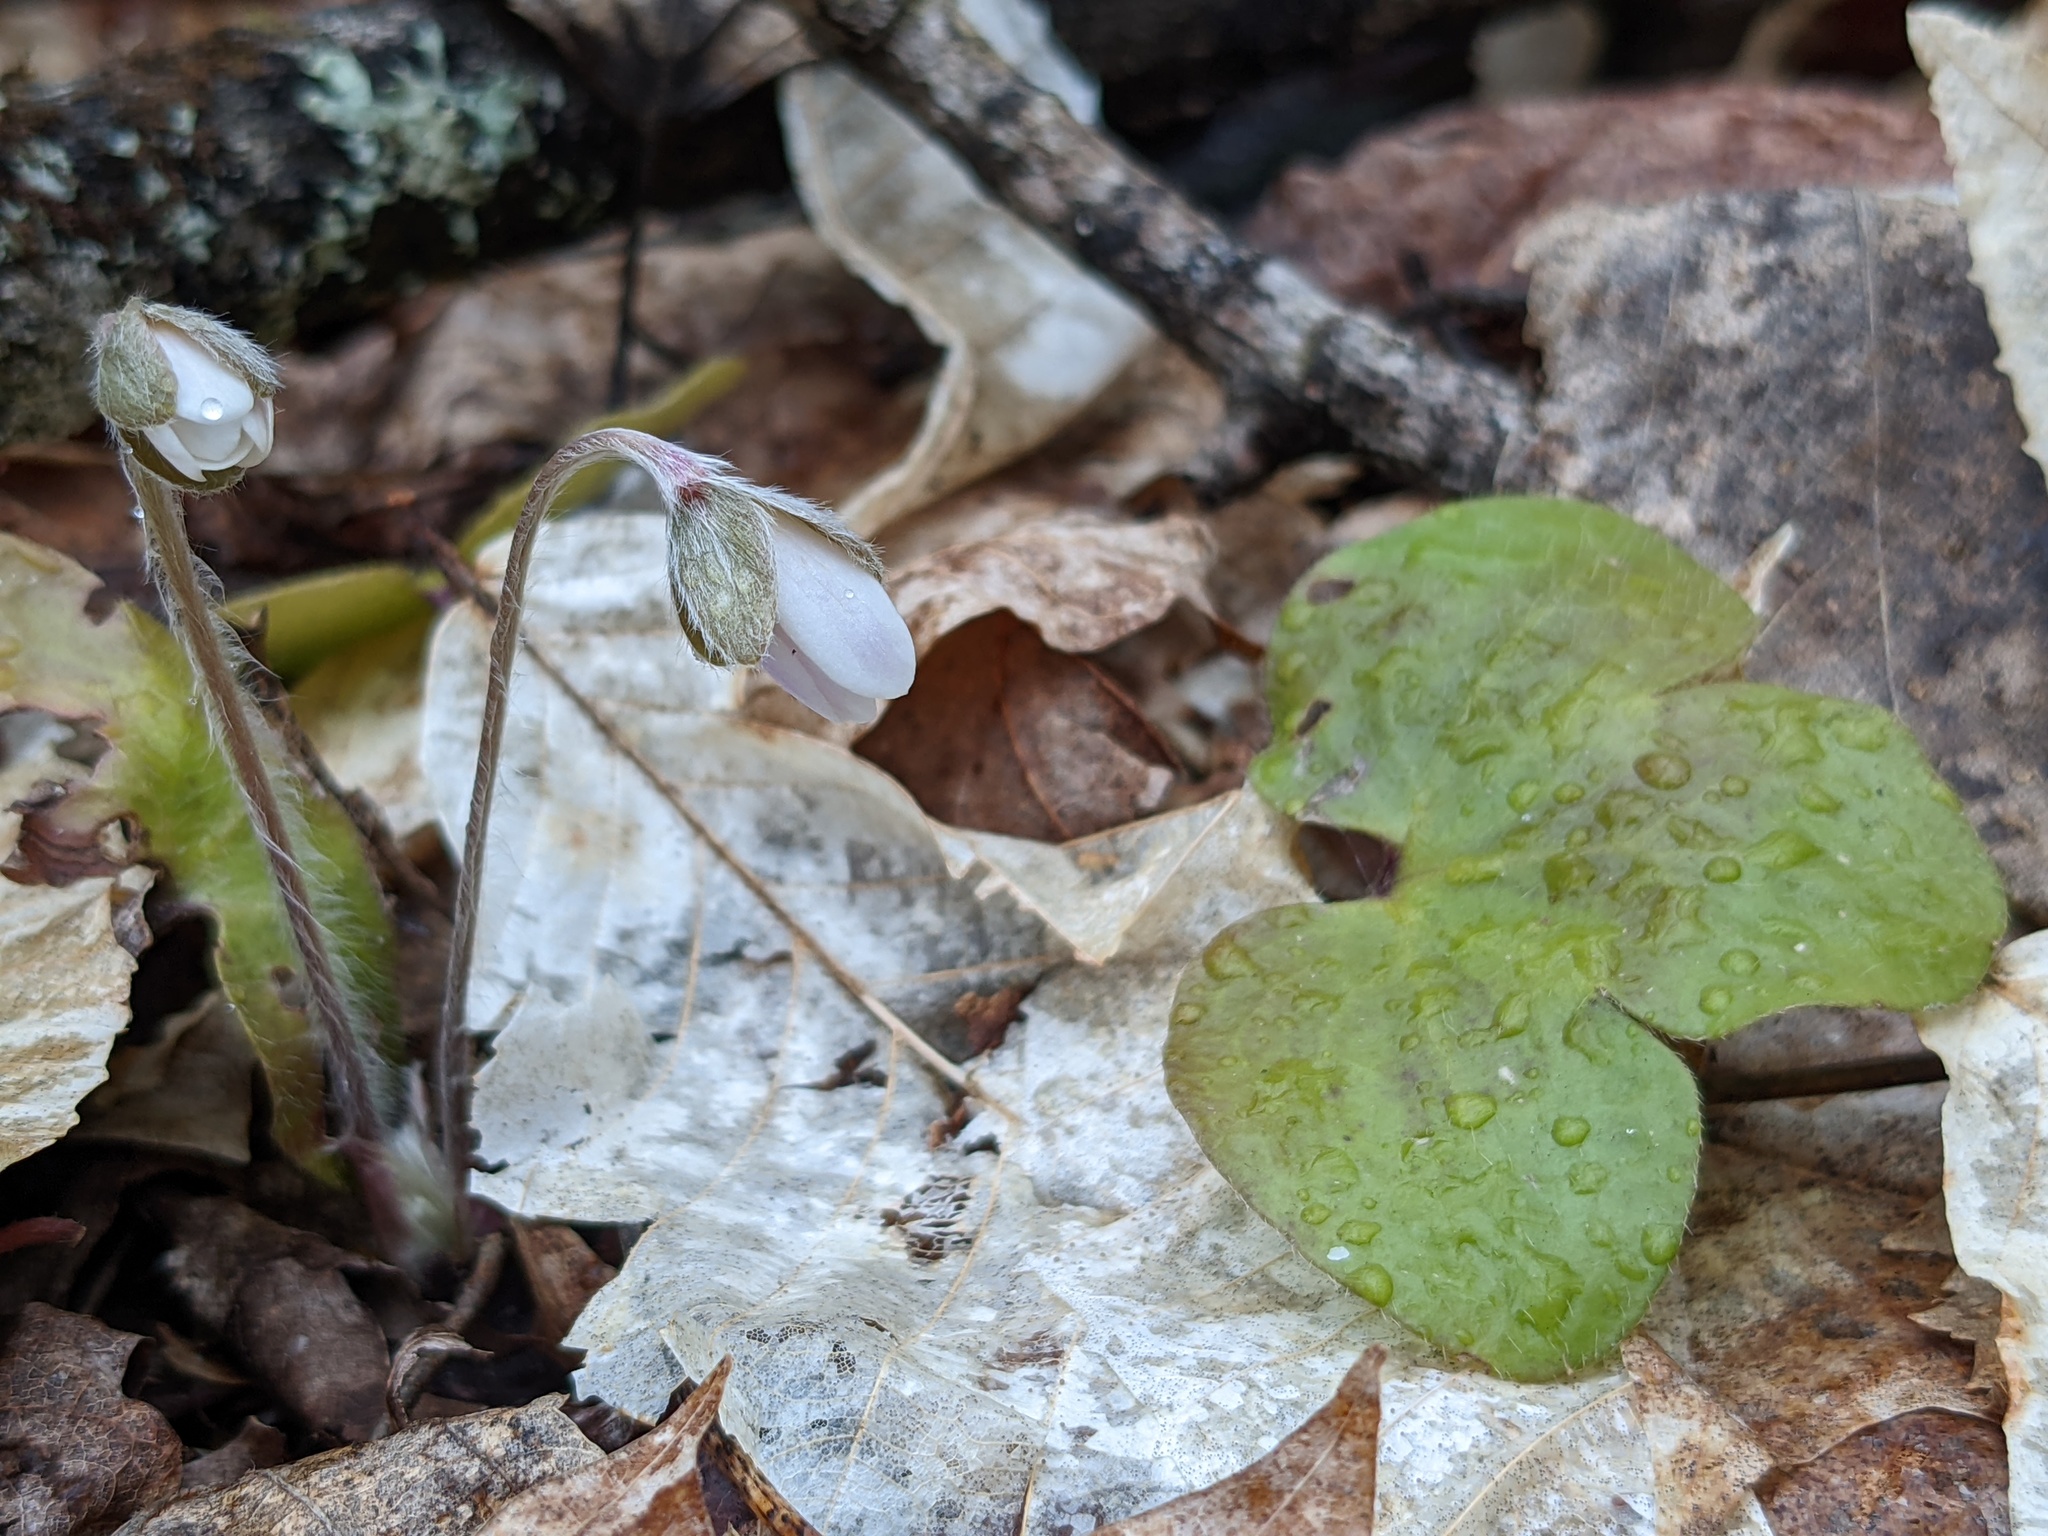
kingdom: Plantae
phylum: Tracheophyta
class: Magnoliopsida
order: Ranunculales
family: Ranunculaceae
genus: Hepatica
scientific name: Hepatica americana
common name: American hepatica
